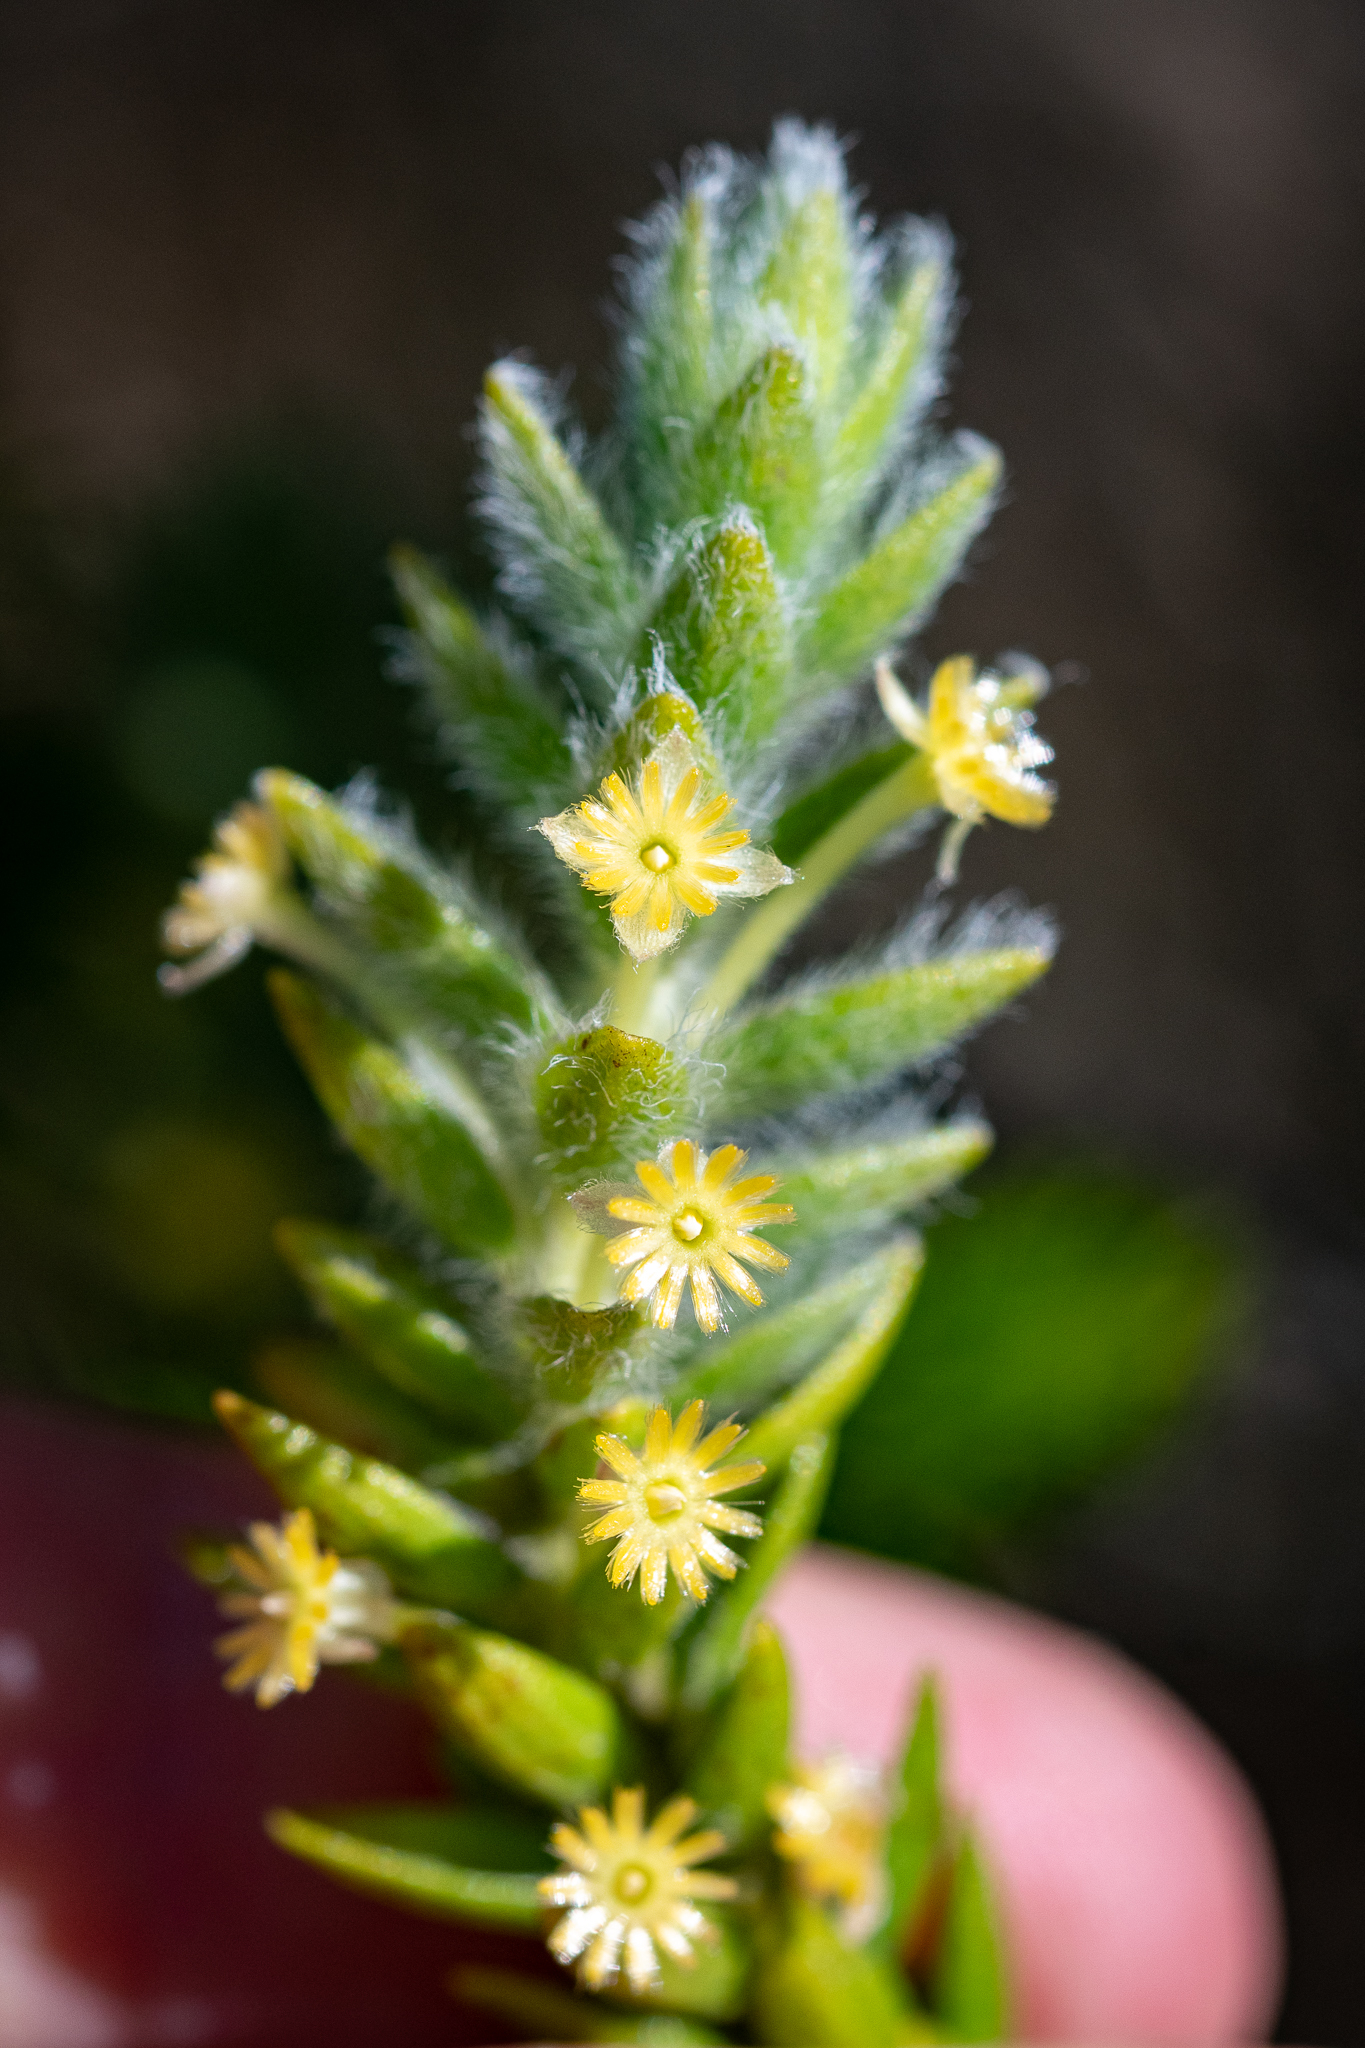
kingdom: Plantae
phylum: Tracheophyta
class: Magnoliopsida
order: Malvales
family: Thymelaeaceae
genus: Struthiola
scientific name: Struthiola tomentosa
